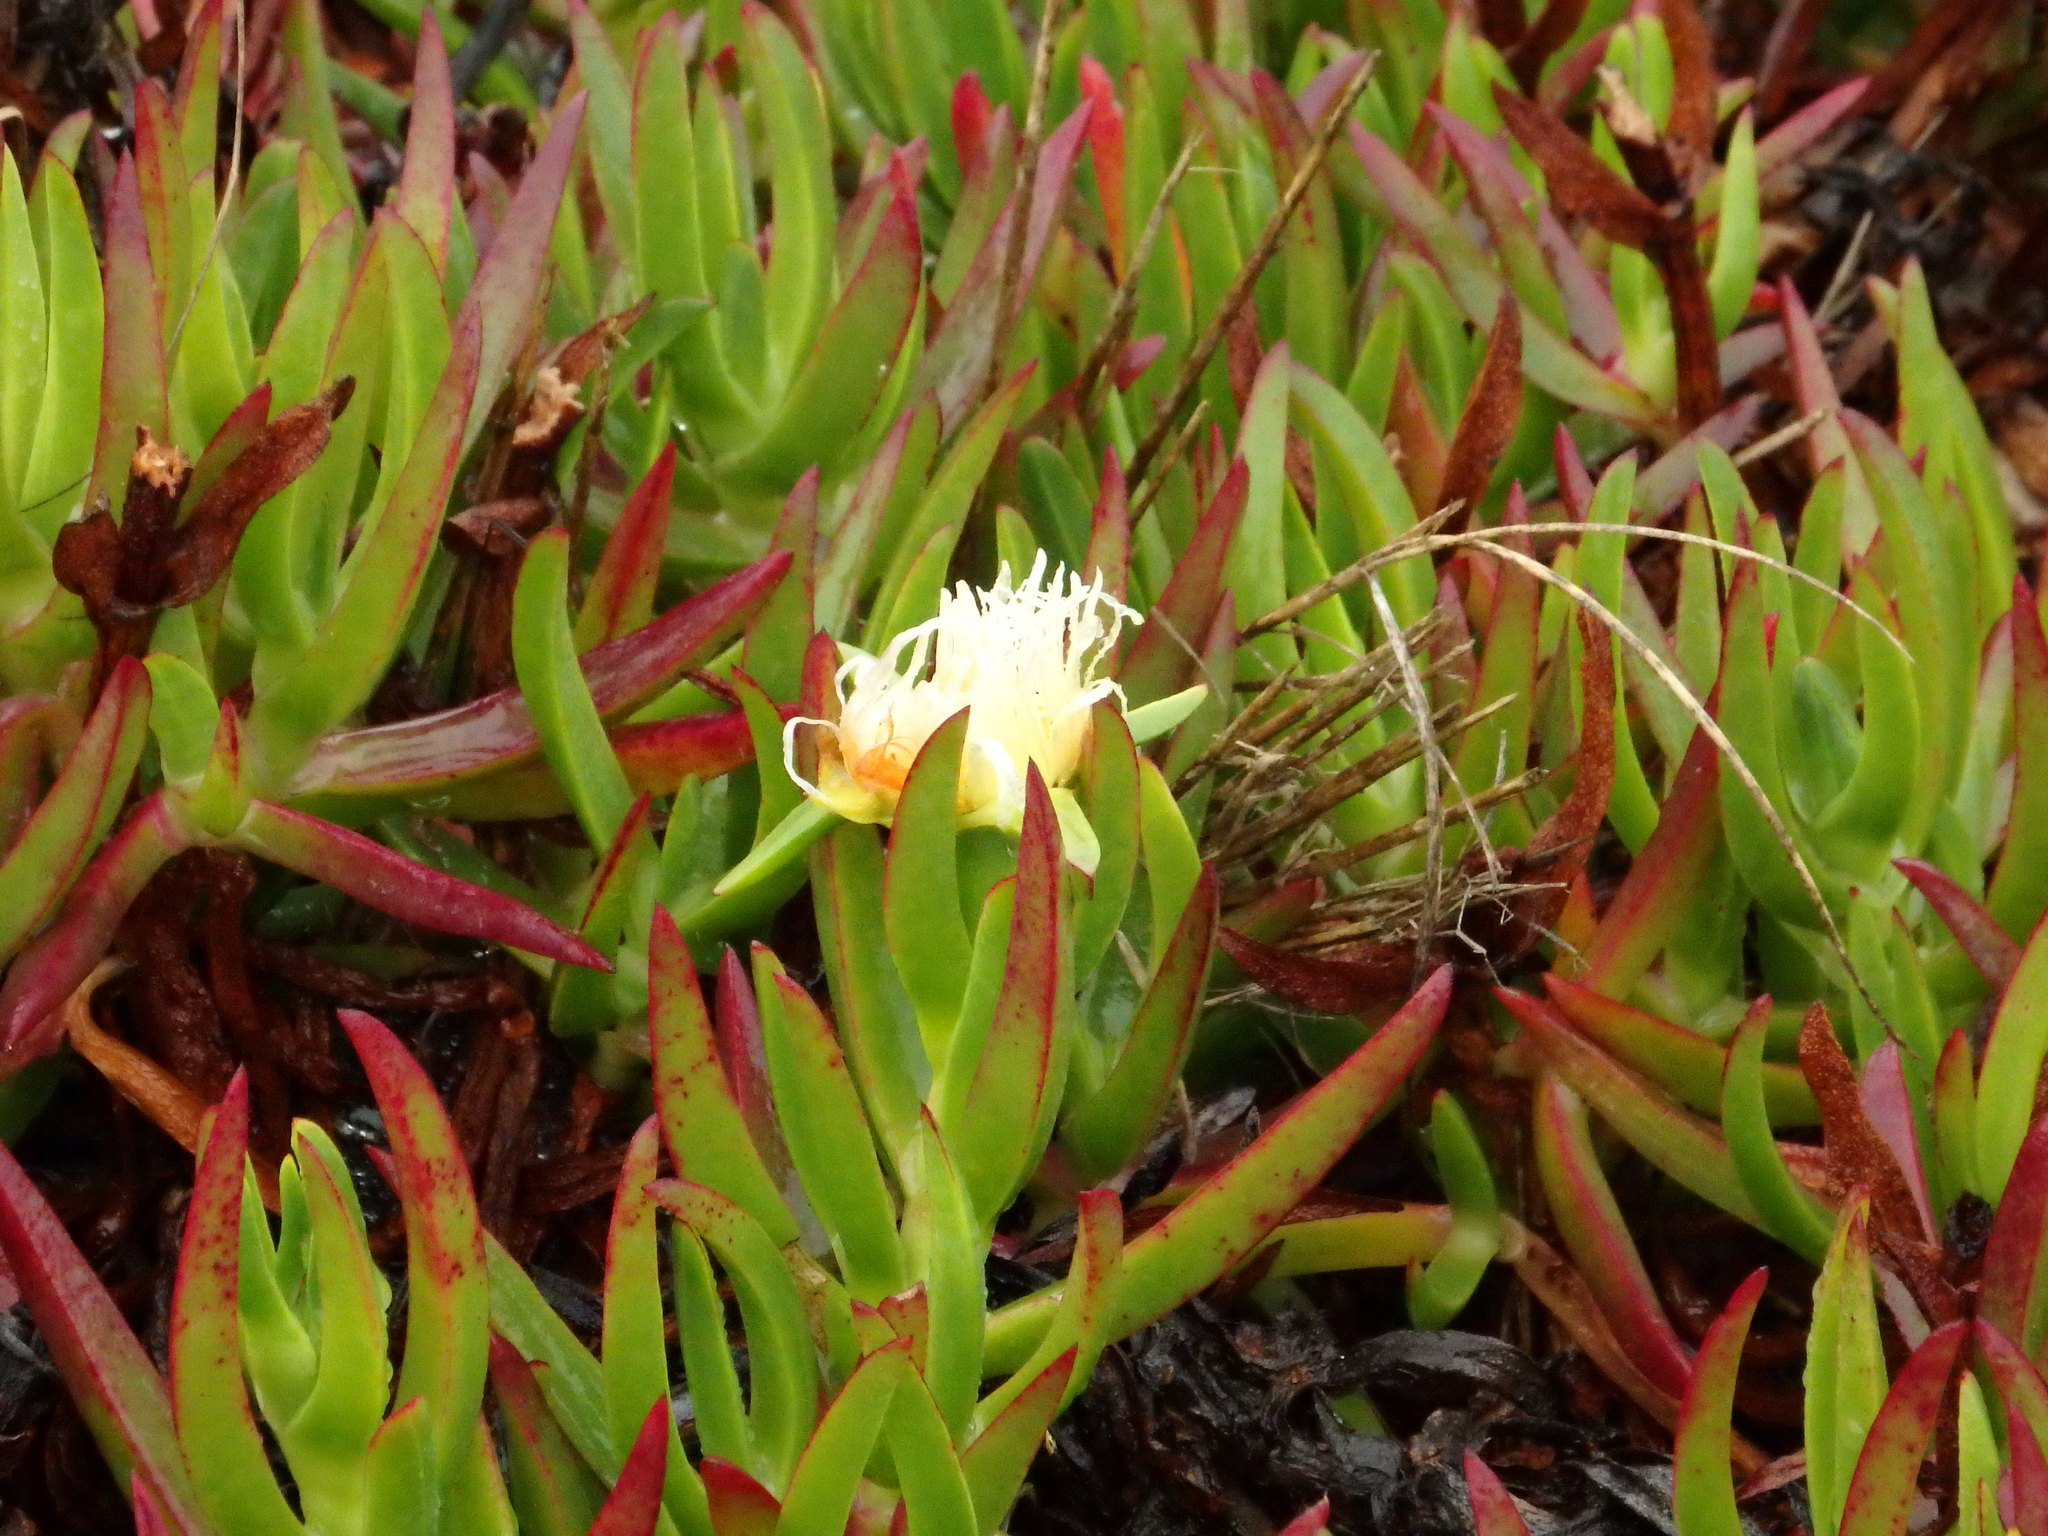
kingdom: Plantae
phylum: Tracheophyta
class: Magnoliopsida
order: Caryophyllales
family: Aizoaceae
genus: Carpobrotus
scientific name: Carpobrotus edulis
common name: Hottentot-fig
